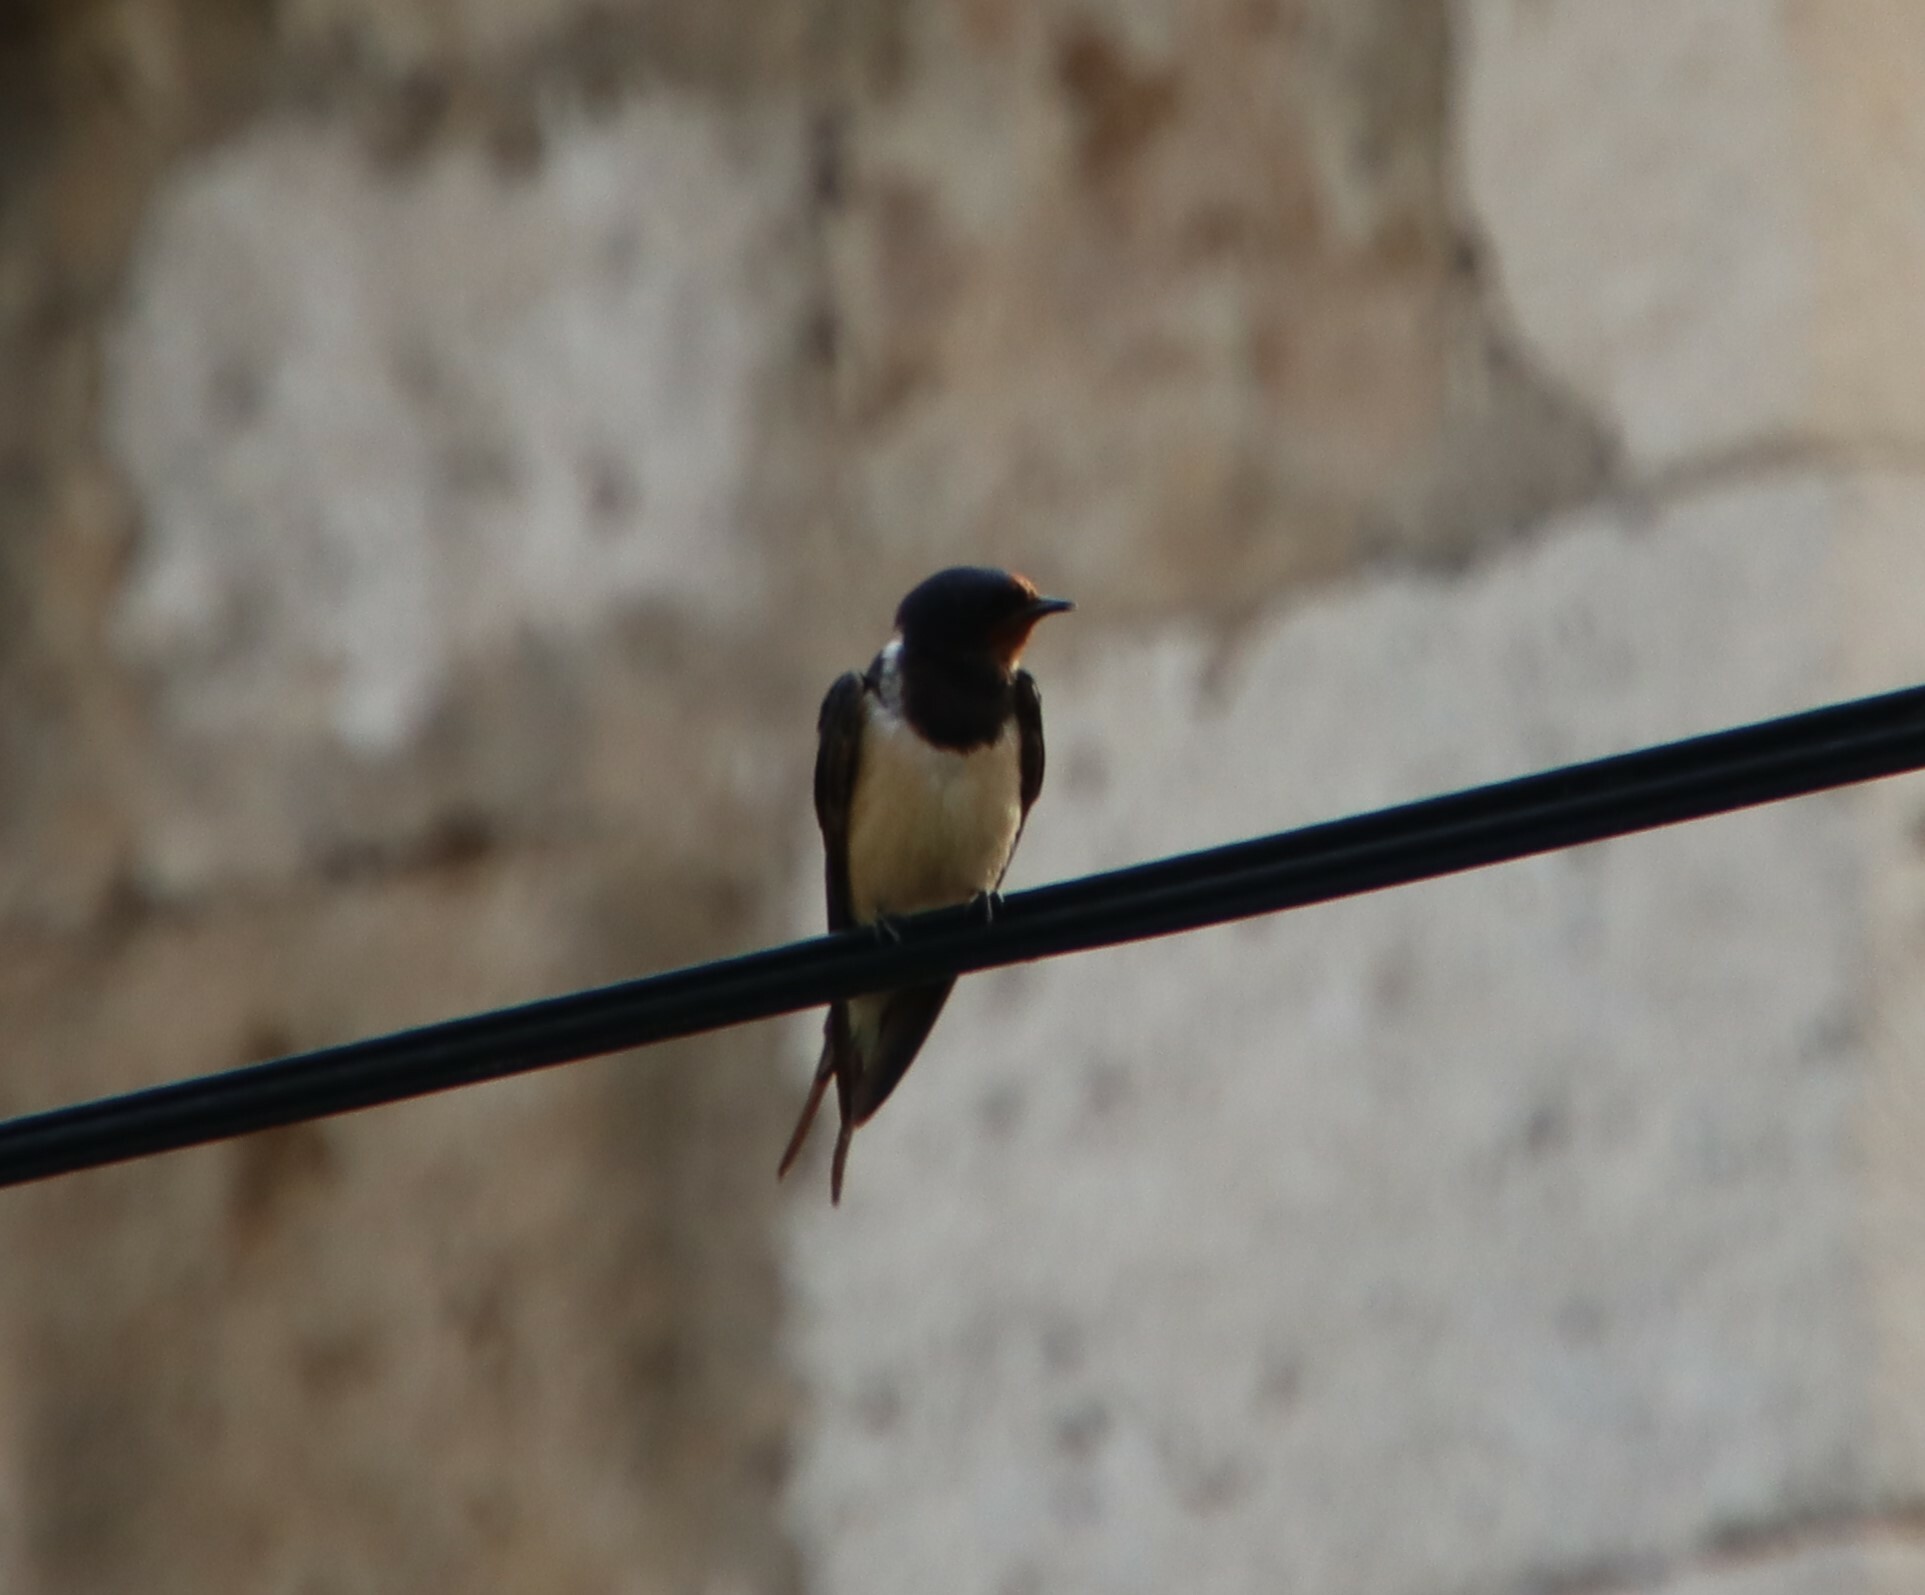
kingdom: Animalia
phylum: Chordata
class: Aves
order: Passeriformes
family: Hirundinidae
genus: Hirundo
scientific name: Hirundo rustica
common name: Barn swallow
